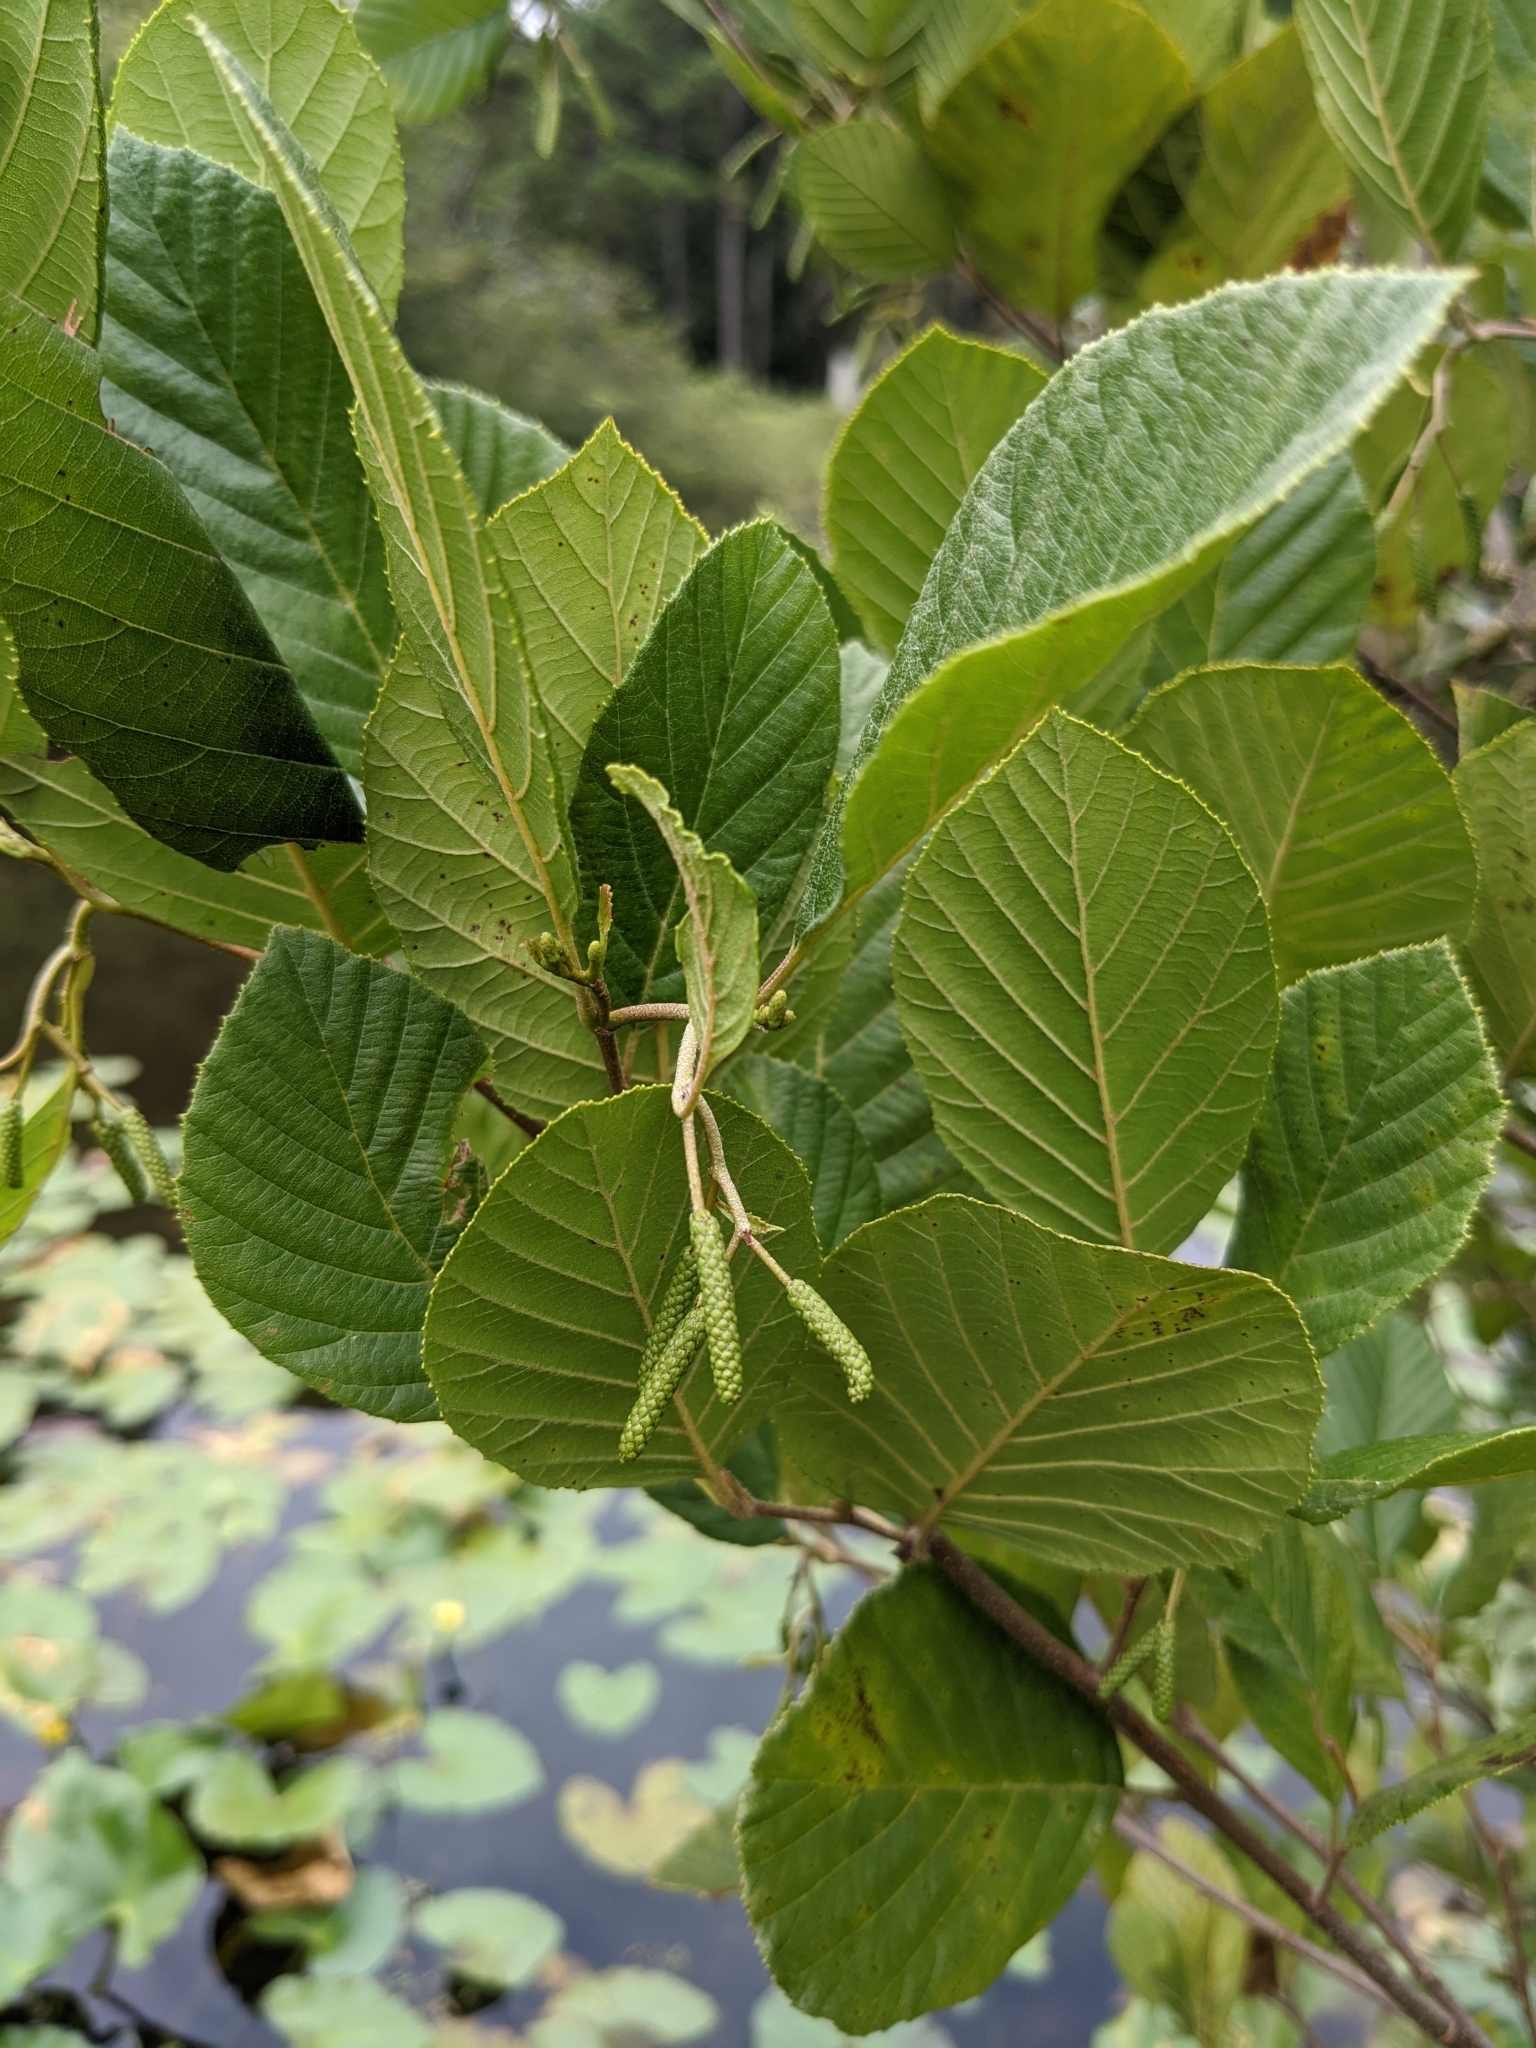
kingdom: Plantae
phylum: Tracheophyta
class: Magnoliopsida
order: Fagales
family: Betulaceae
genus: Alnus
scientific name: Alnus serrulata
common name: Hazel alder
